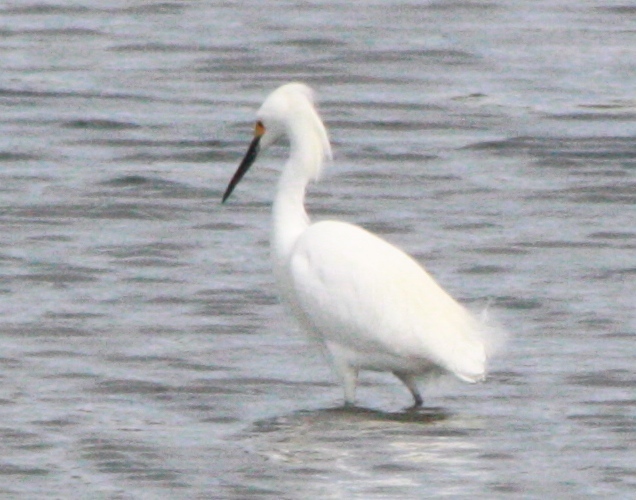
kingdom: Animalia
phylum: Chordata
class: Aves
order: Pelecaniformes
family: Ardeidae
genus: Egretta
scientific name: Egretta thula
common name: Snowy egret
